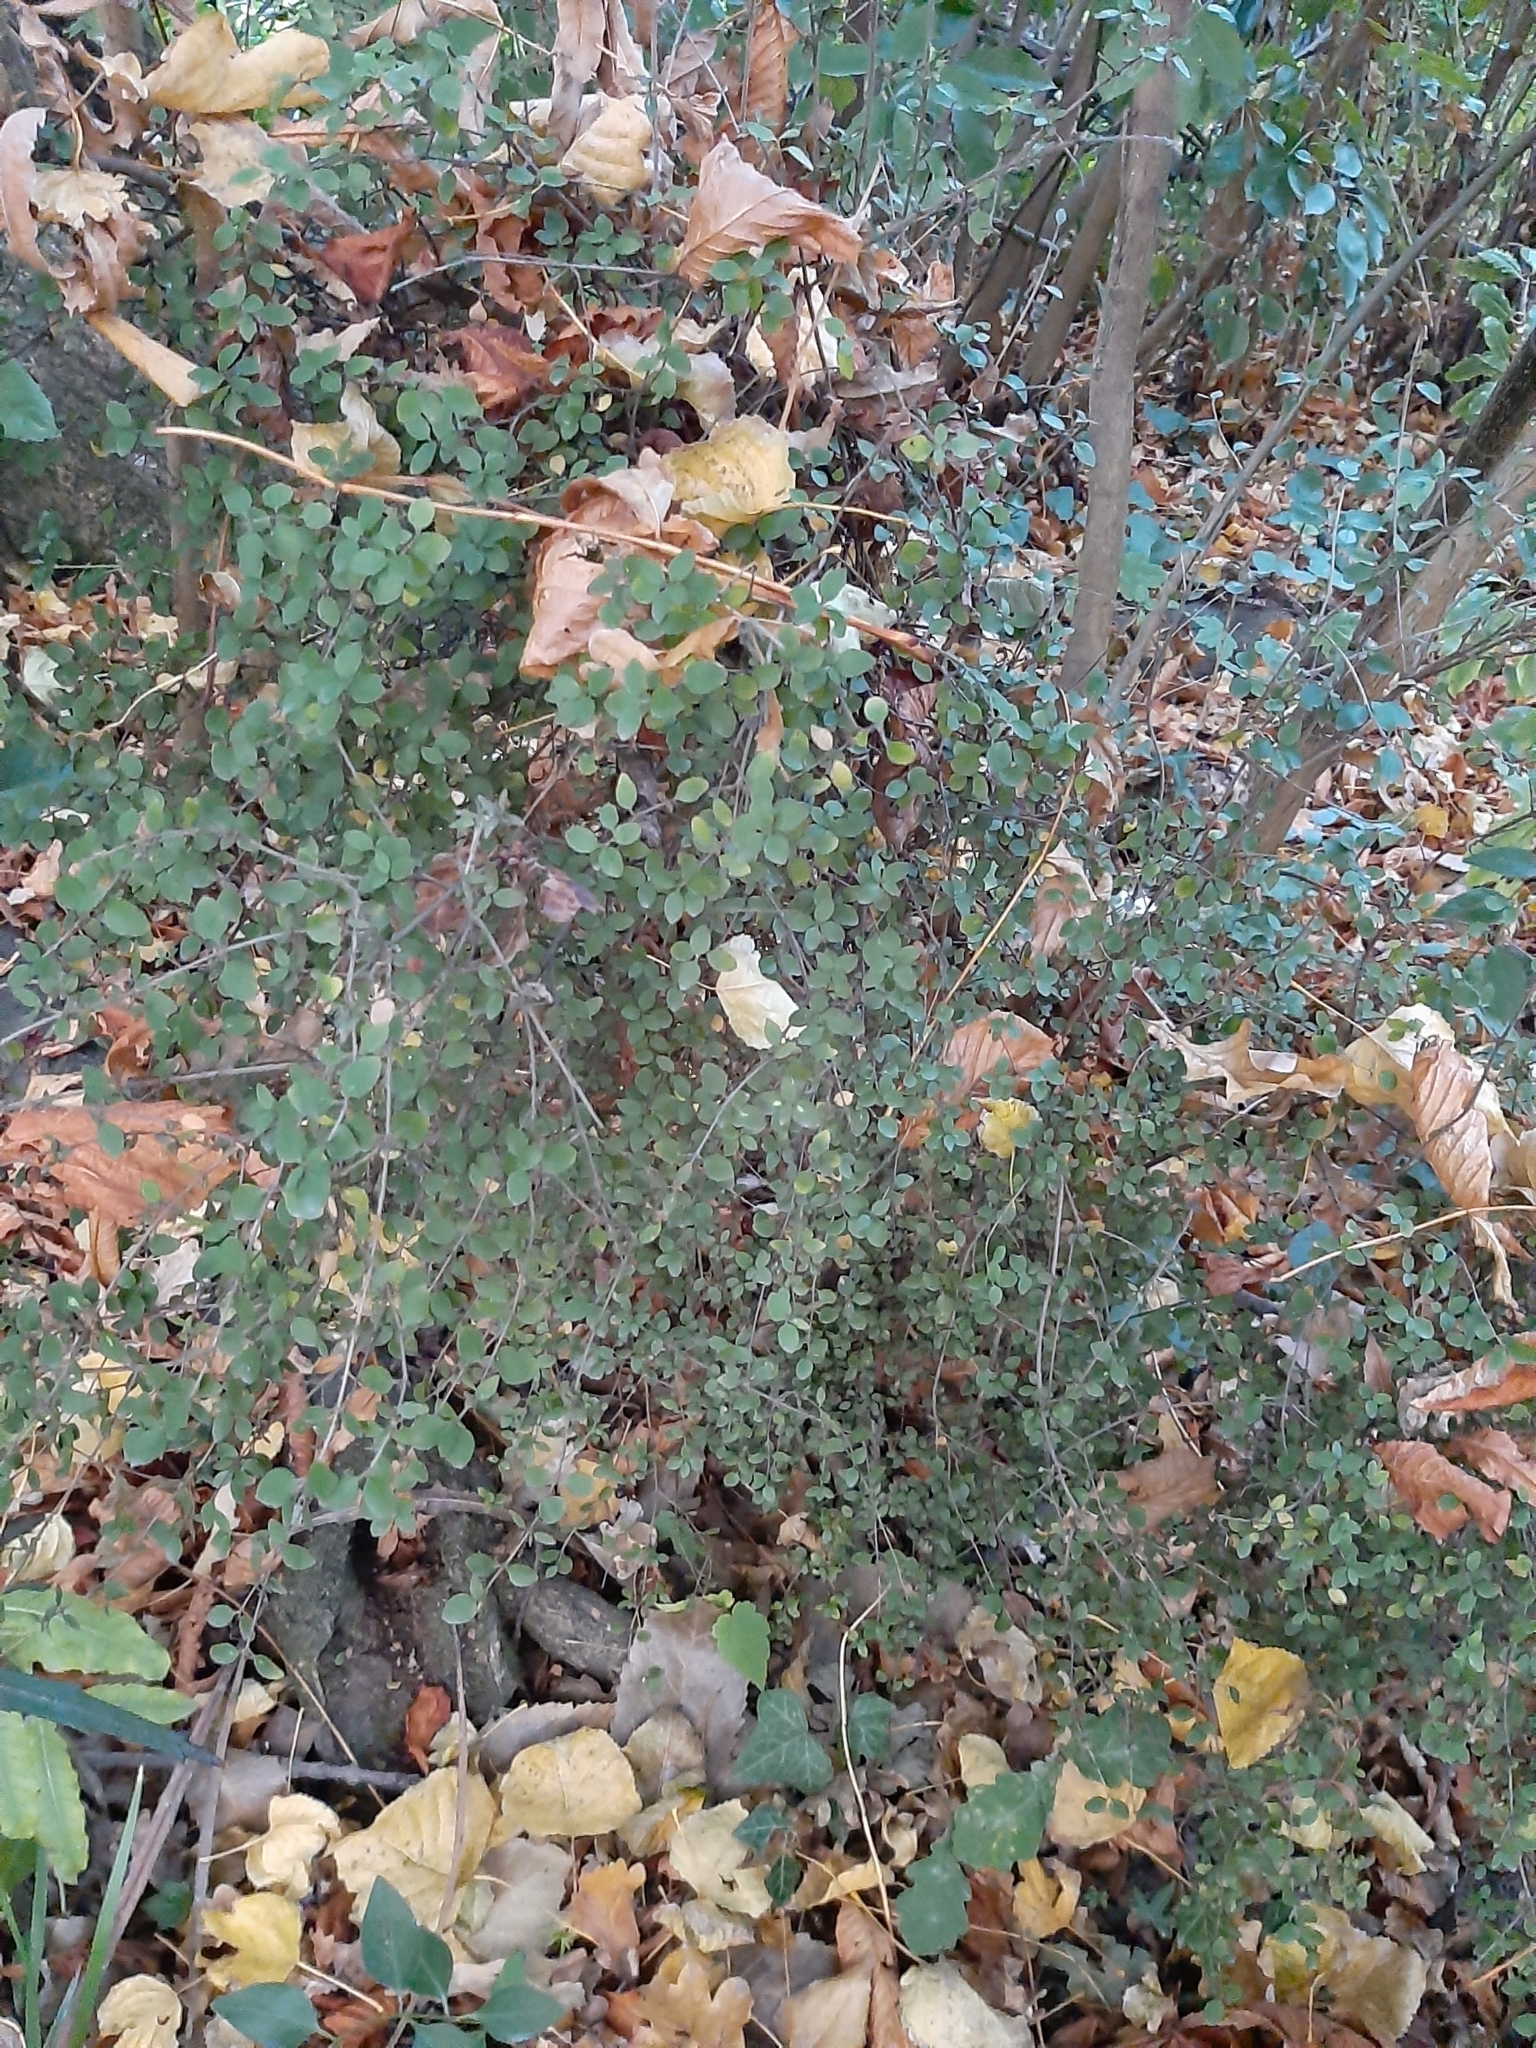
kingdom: Plantae
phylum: Tracheophyta
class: Magnoliopsida
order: Gentianales
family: Rubiaceae
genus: Coprosma
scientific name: Coprosma rhamnoides
